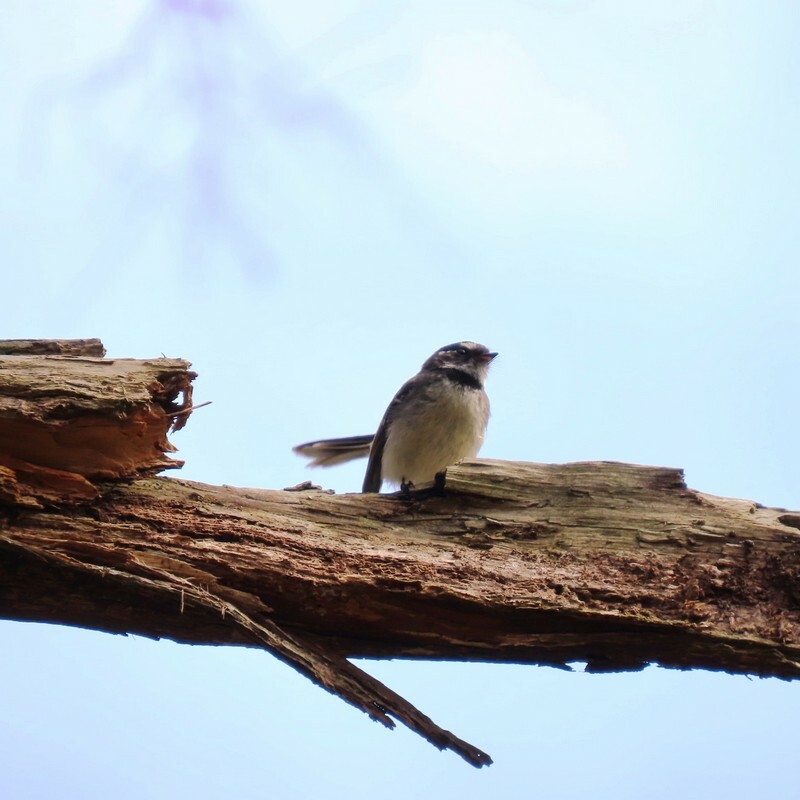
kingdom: Animalia
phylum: Chordata
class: Aves
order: Passeriformes
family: Rhipiduridae
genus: Rhipidura
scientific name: Rhipidura albiscapa
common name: Grey fantail
